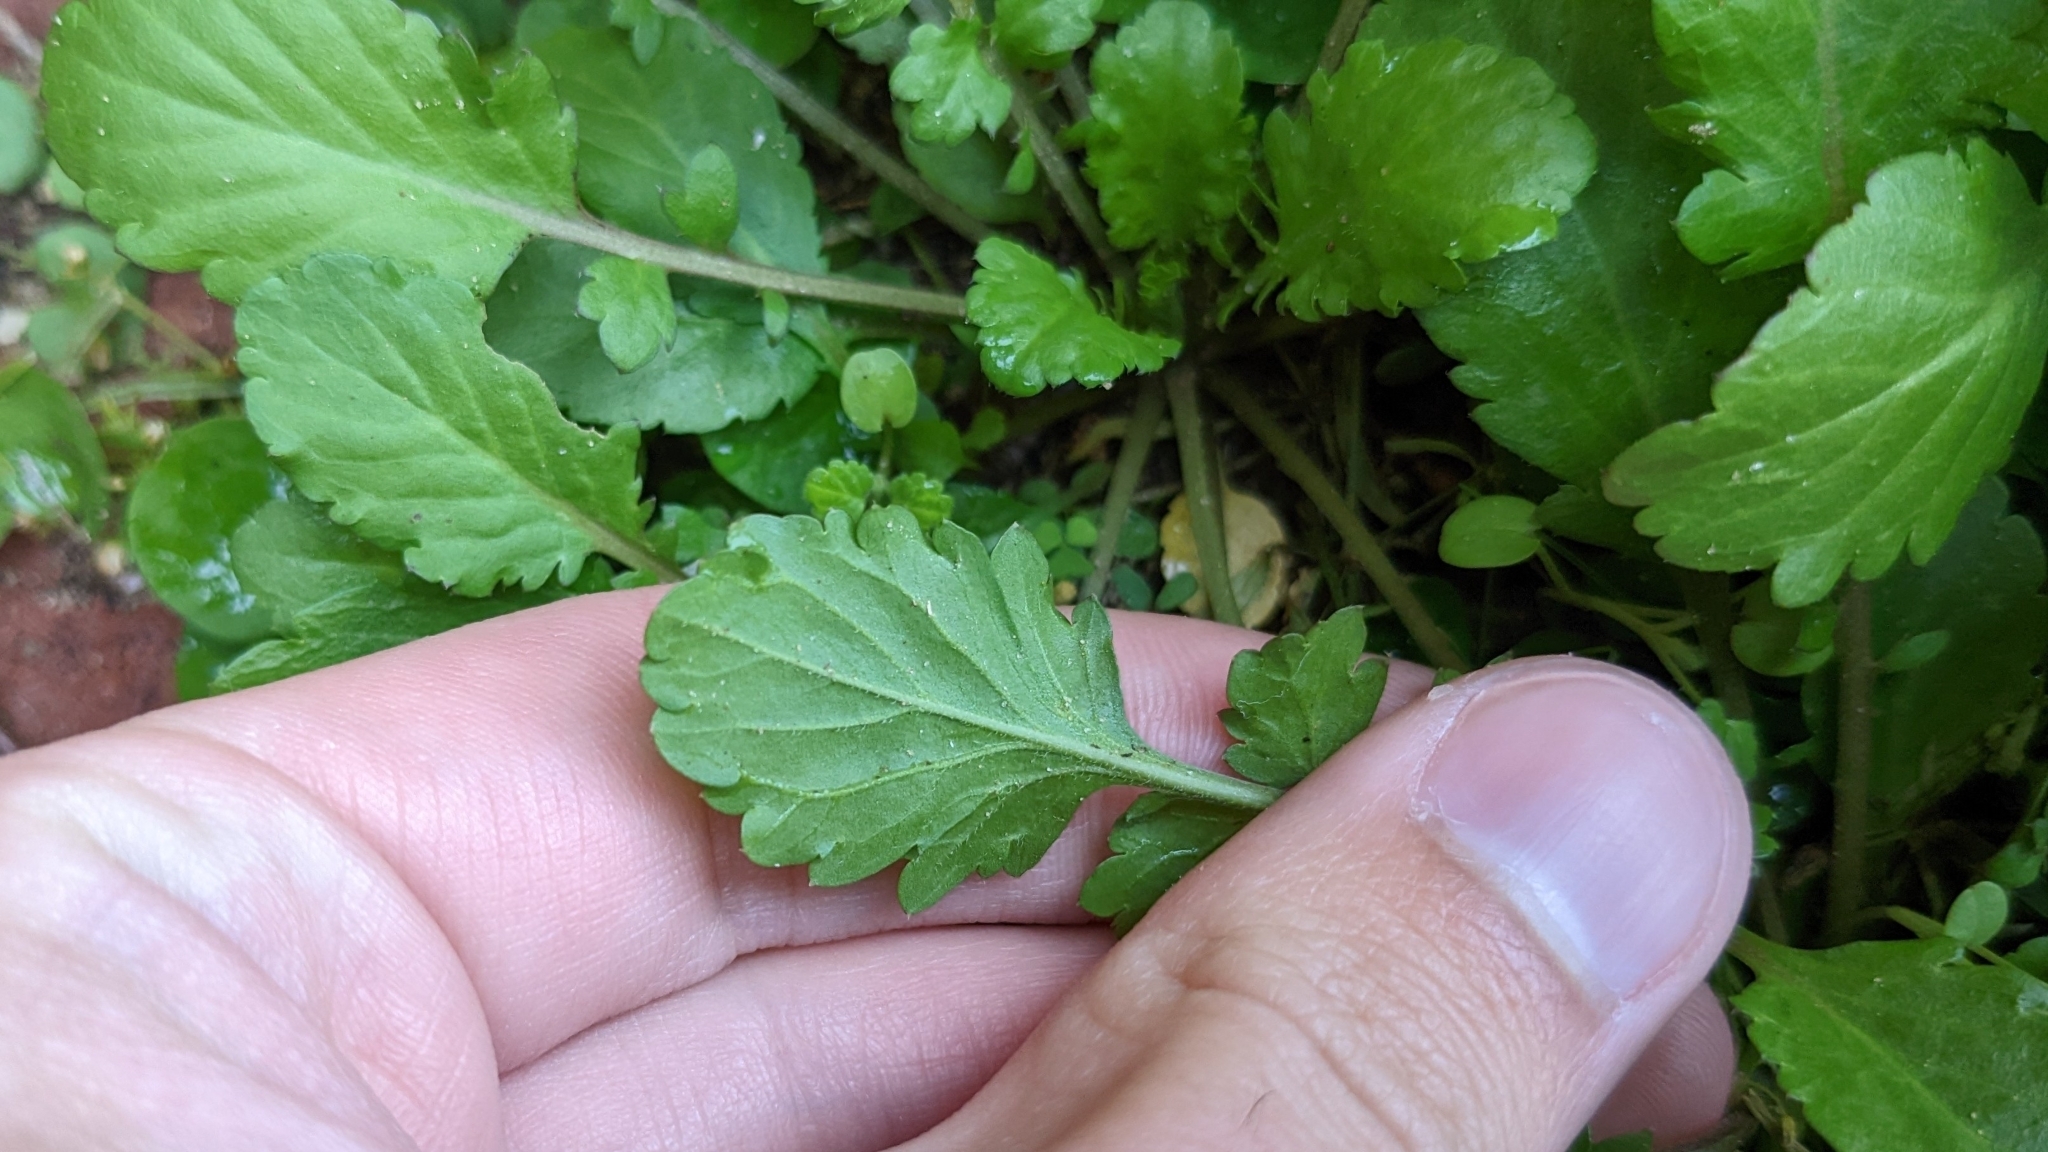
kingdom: Plantae
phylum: Tracheophyta
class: Magnoliopsida
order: Asterales
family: Asteraceae
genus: Packera
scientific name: Packera glabella
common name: Butterweed
